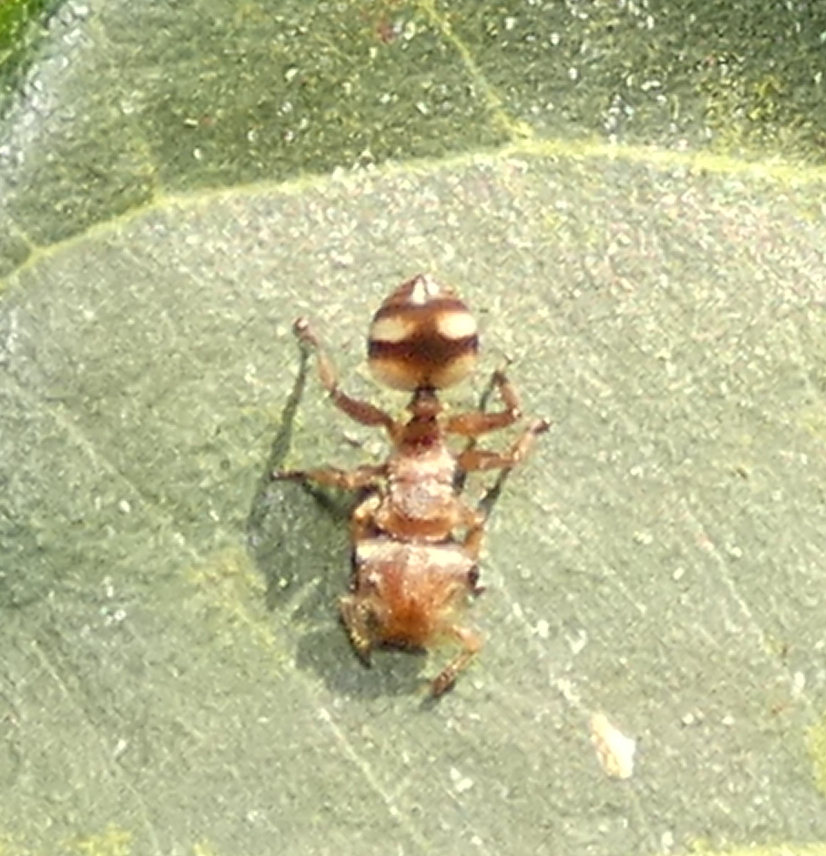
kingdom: Animalia
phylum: Arthropoda
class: Insecta
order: Hymenoptera
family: Formicidae
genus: Cephalotes
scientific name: Cephalotes umbraculatus
